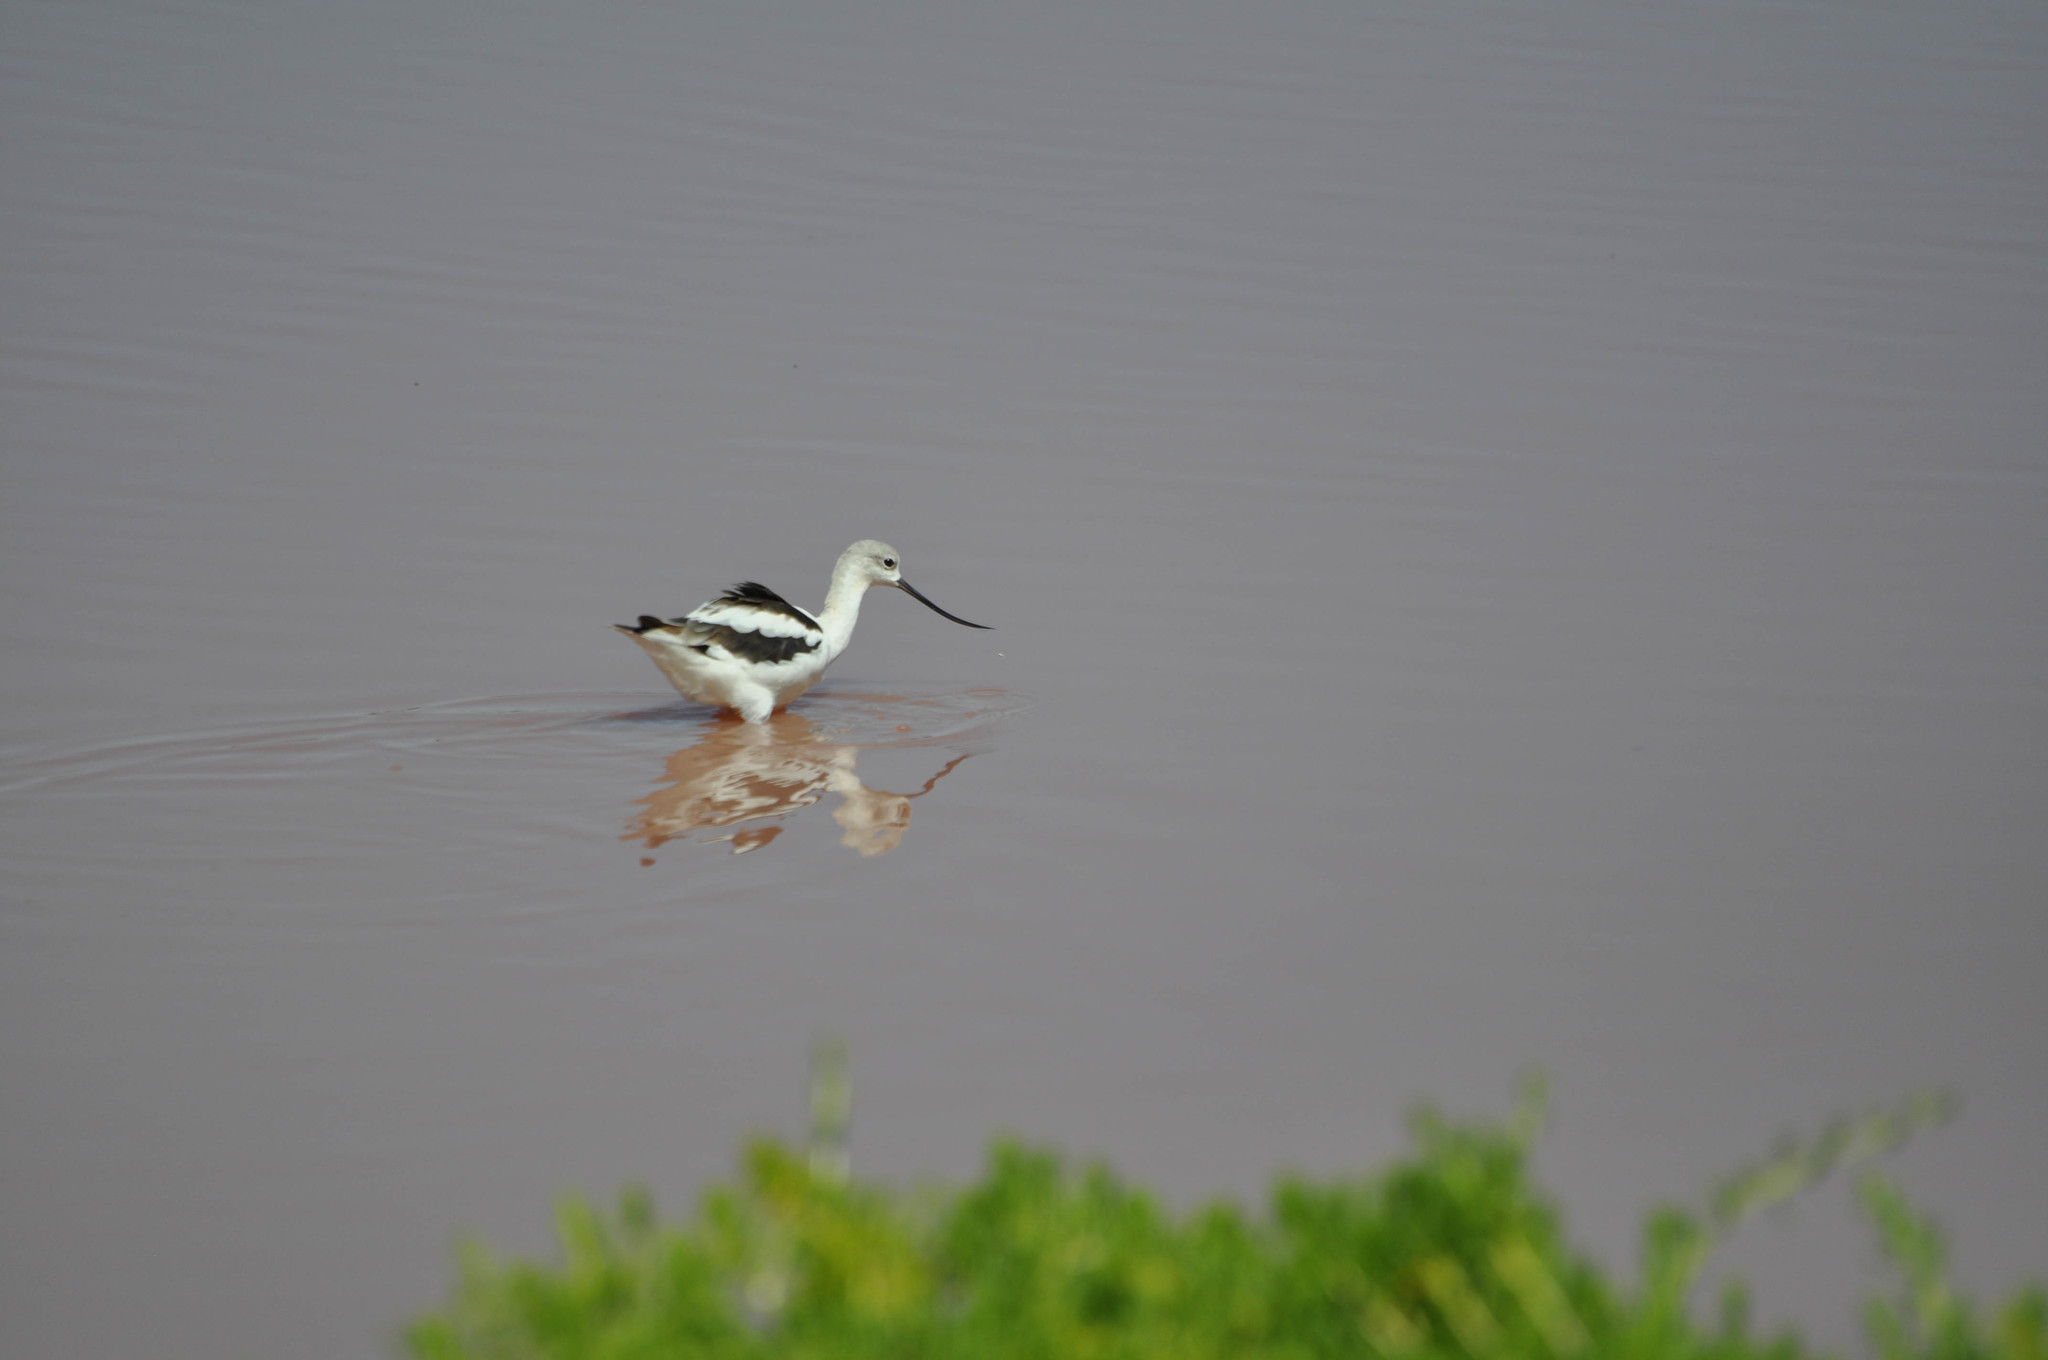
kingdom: Animalia
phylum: Chordata
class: Aves
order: Charadriiformes
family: Recurvirostridae
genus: Recurvirostra
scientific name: Recurvirostra americana
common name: American avocet
